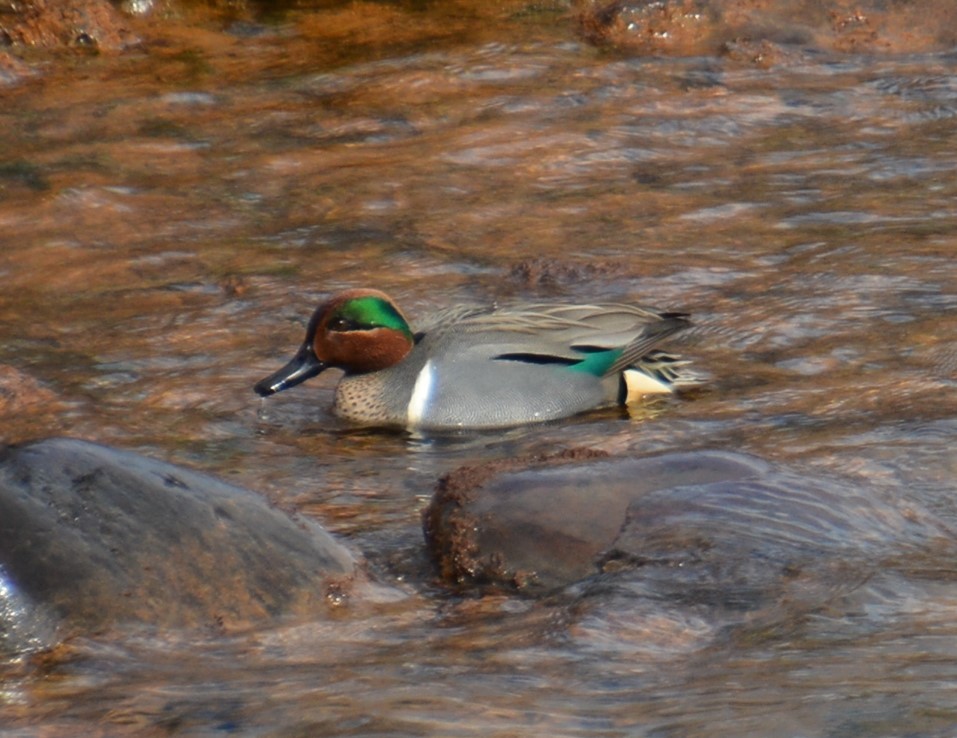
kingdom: Animalia
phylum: Chordata
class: Aves
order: Anseriformes
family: Anatidae
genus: Anas
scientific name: Anas crecca
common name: Eurasian teal
